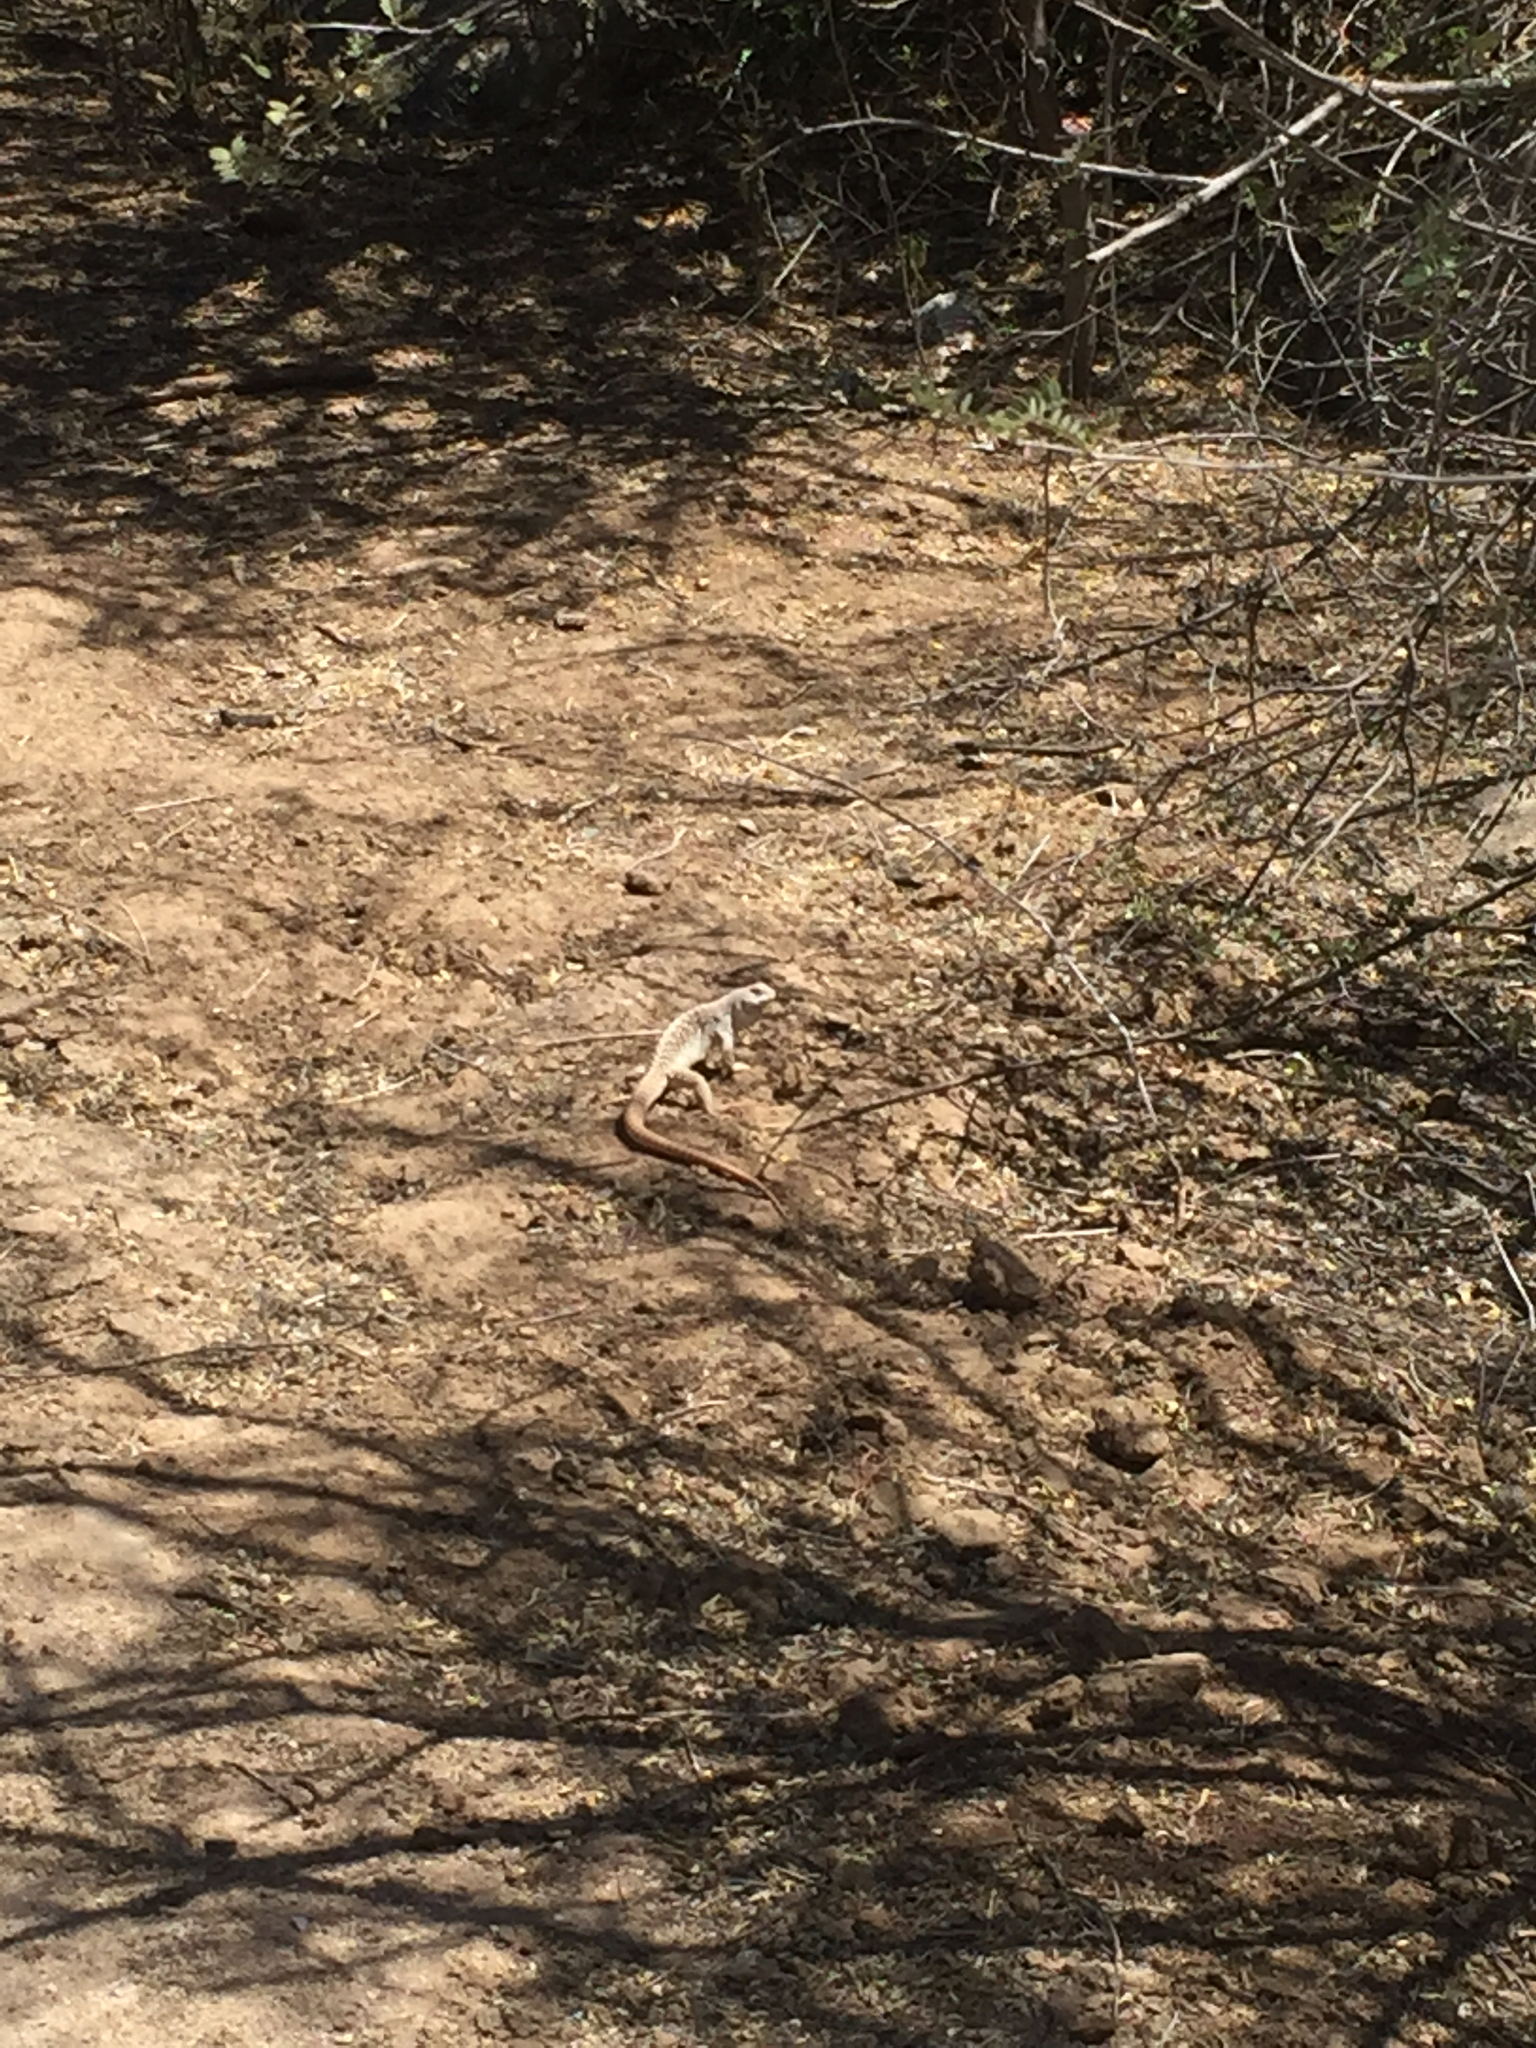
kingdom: Animalia
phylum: Chordata
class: Squamata
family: Iguanidae
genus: Dipsosaurus
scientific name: Dipsosaurus dorsalis
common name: Desert iguana
